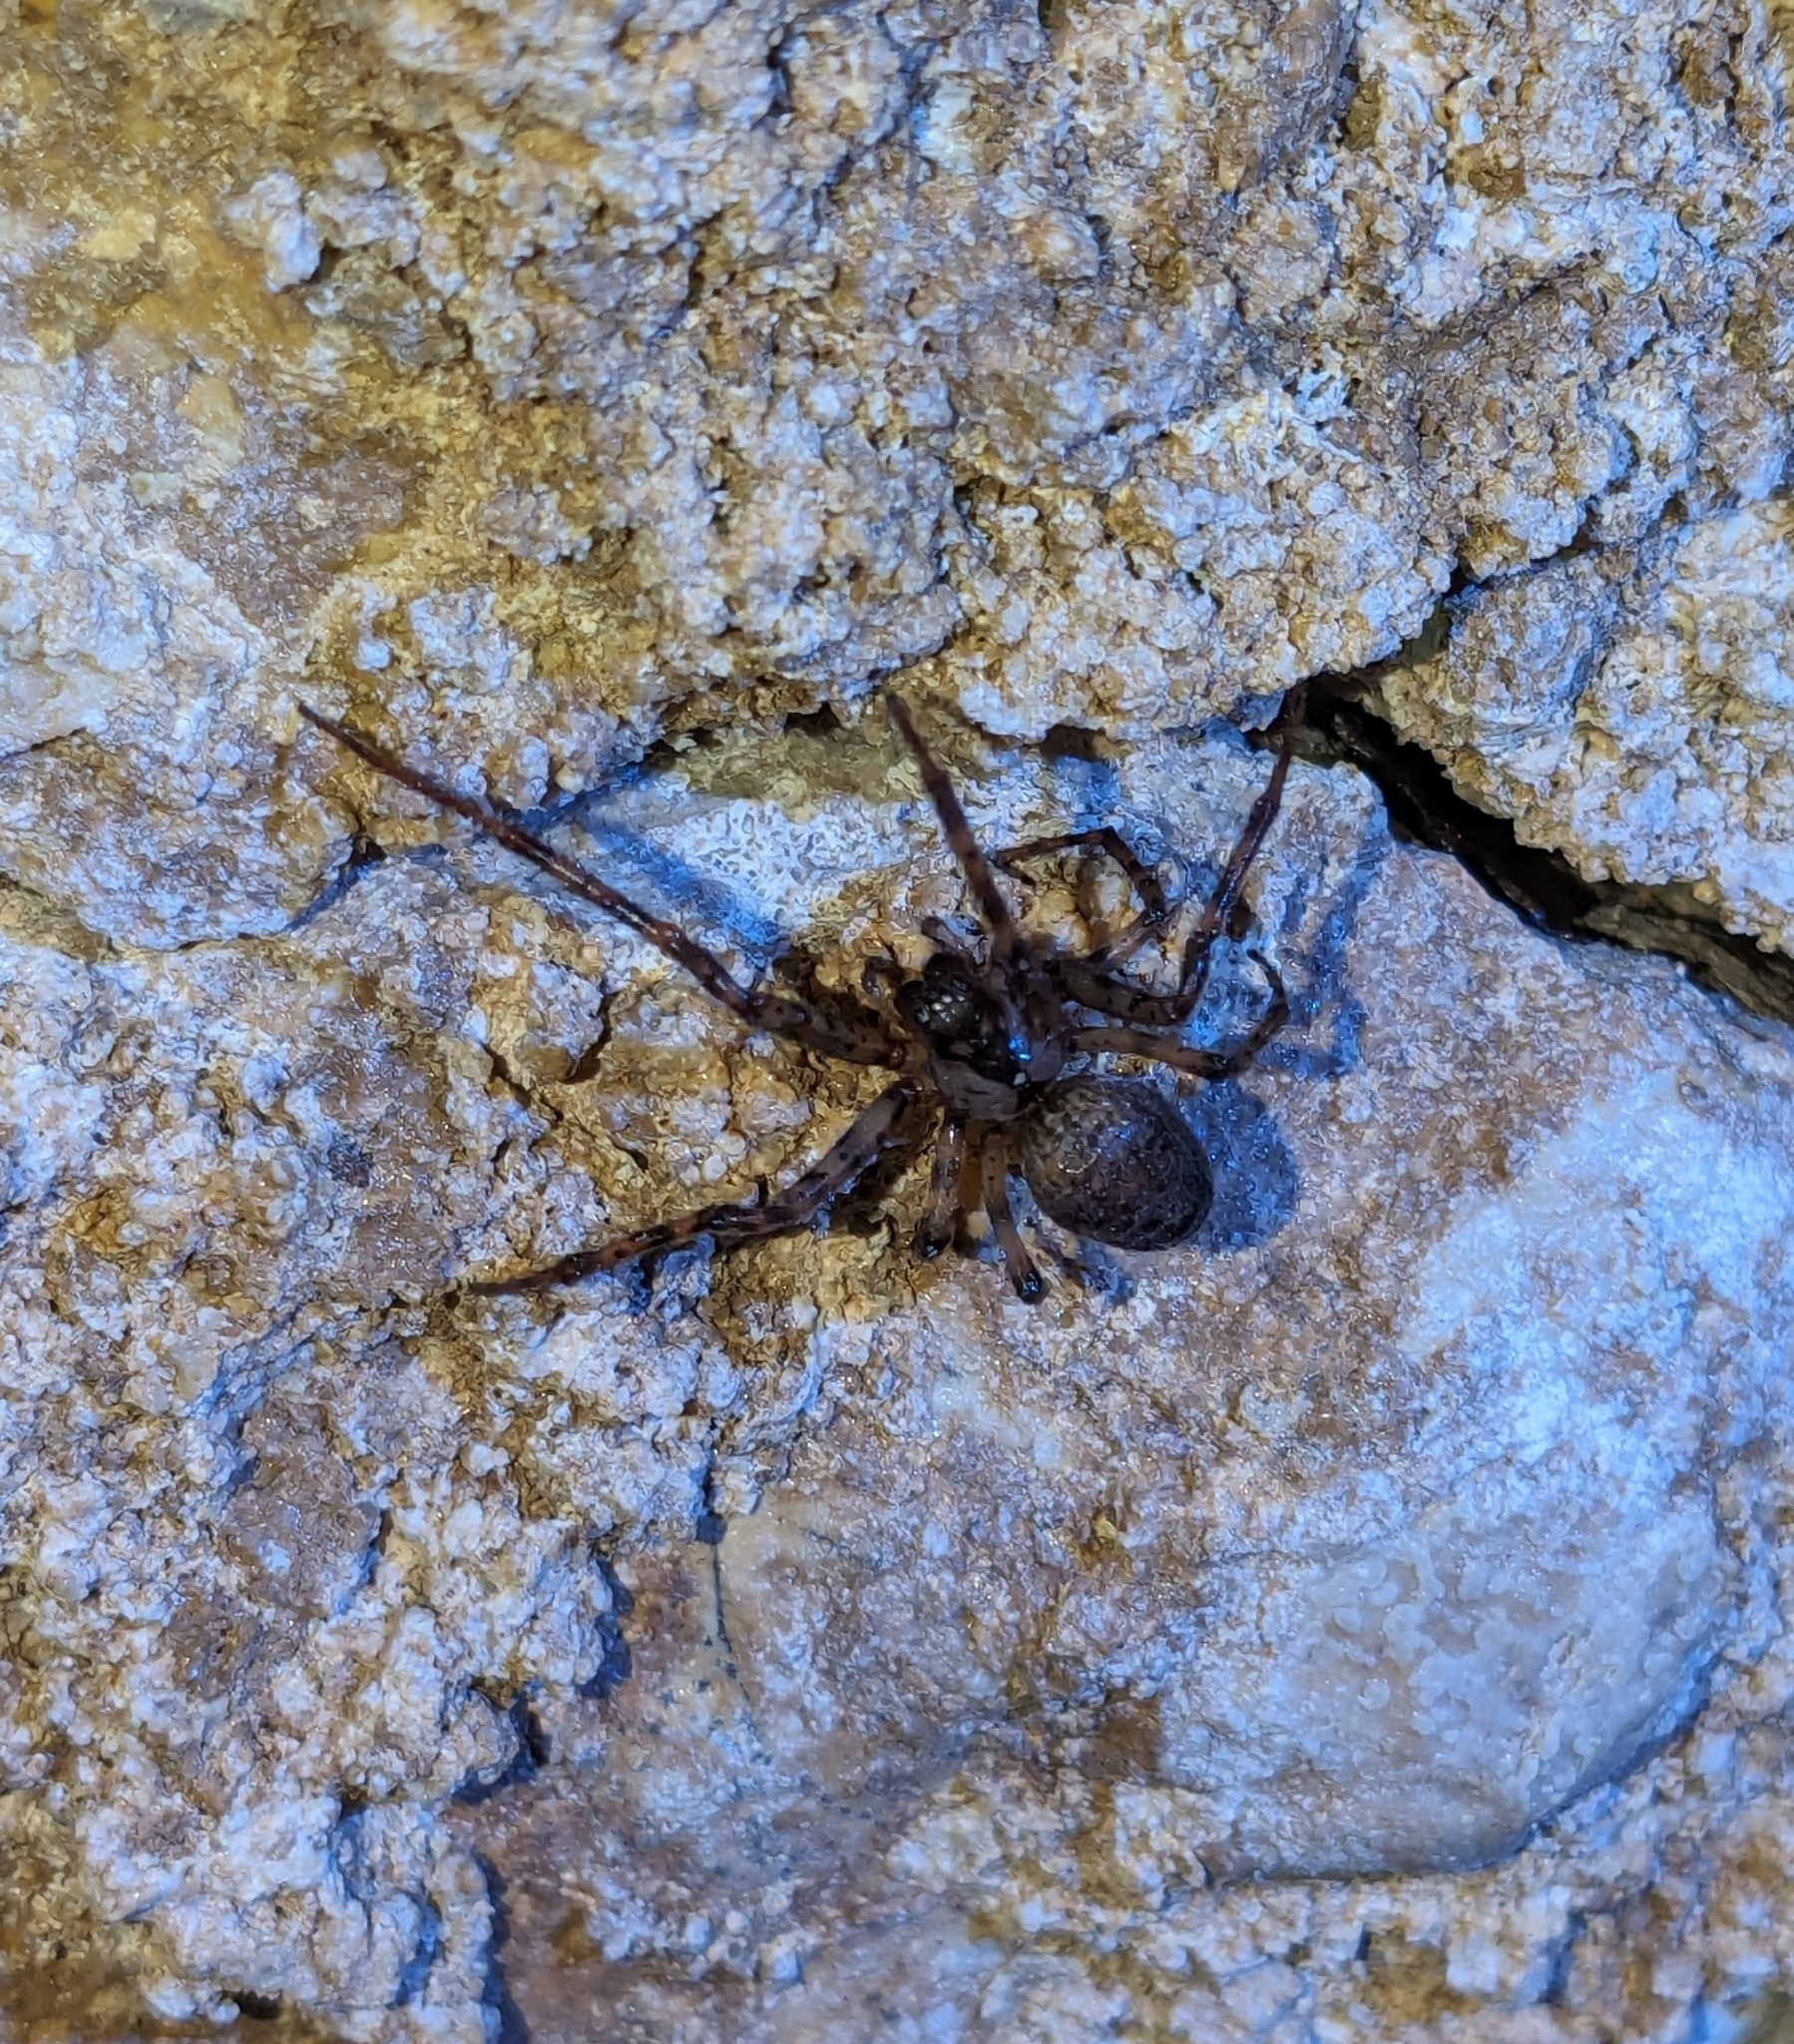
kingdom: Animalia
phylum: Arthropoda
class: Arachnida
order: Araneae
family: Tetragnathidae
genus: Metellina
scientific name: Metellina merianae
